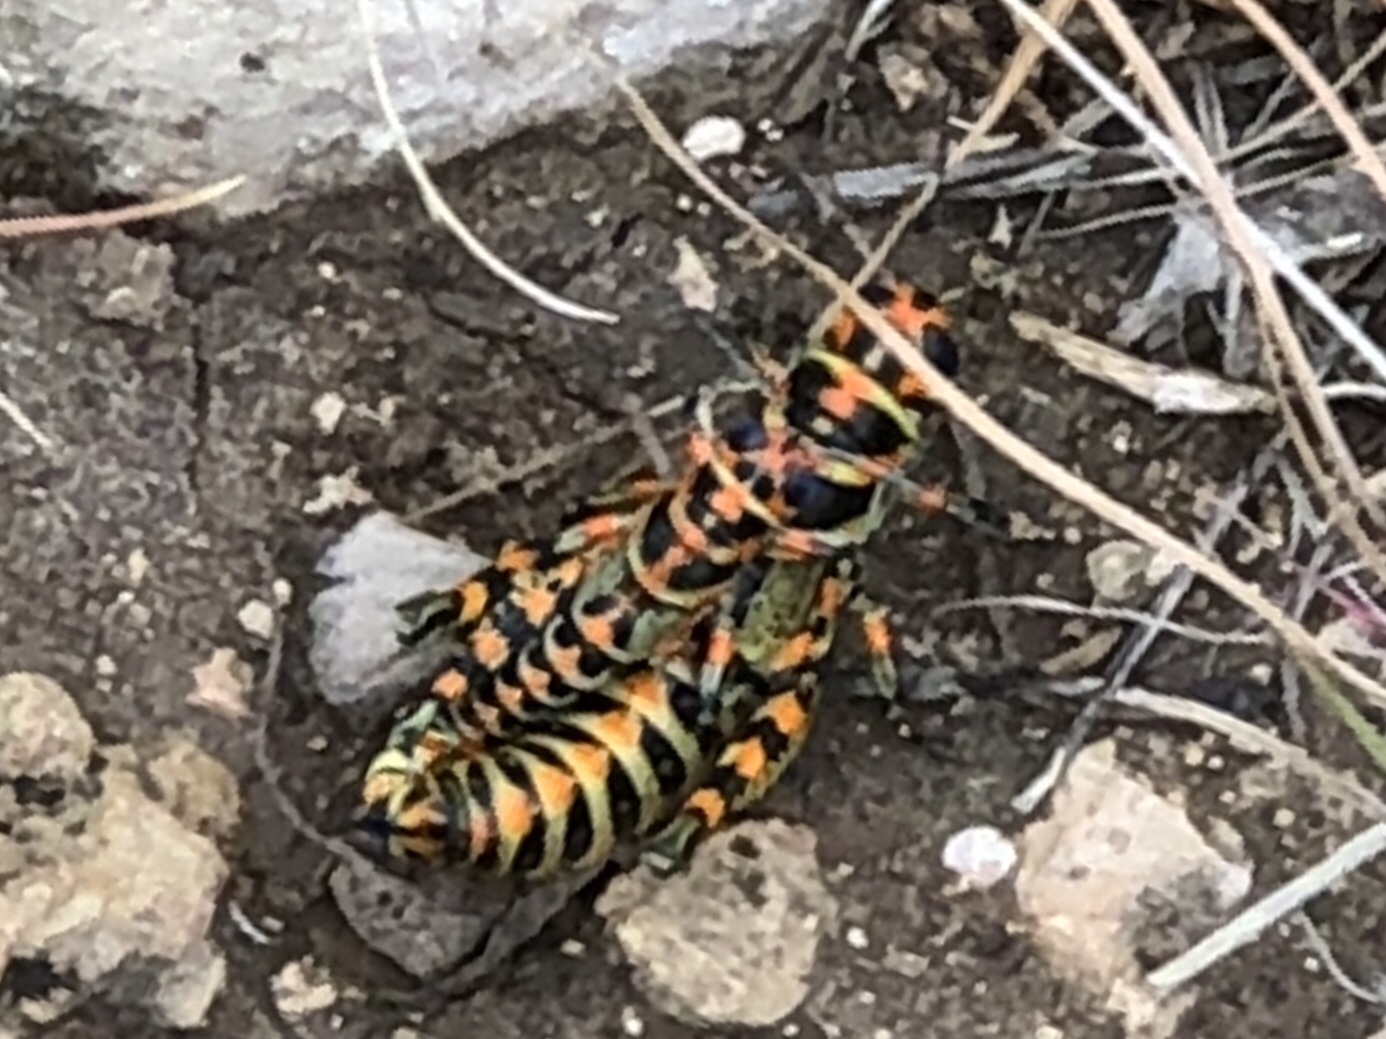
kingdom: Animalia
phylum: Arthropoda
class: Insecta
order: Orthoptera
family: Acrididae
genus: Dactylotum
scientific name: Dactylotum bicolor
